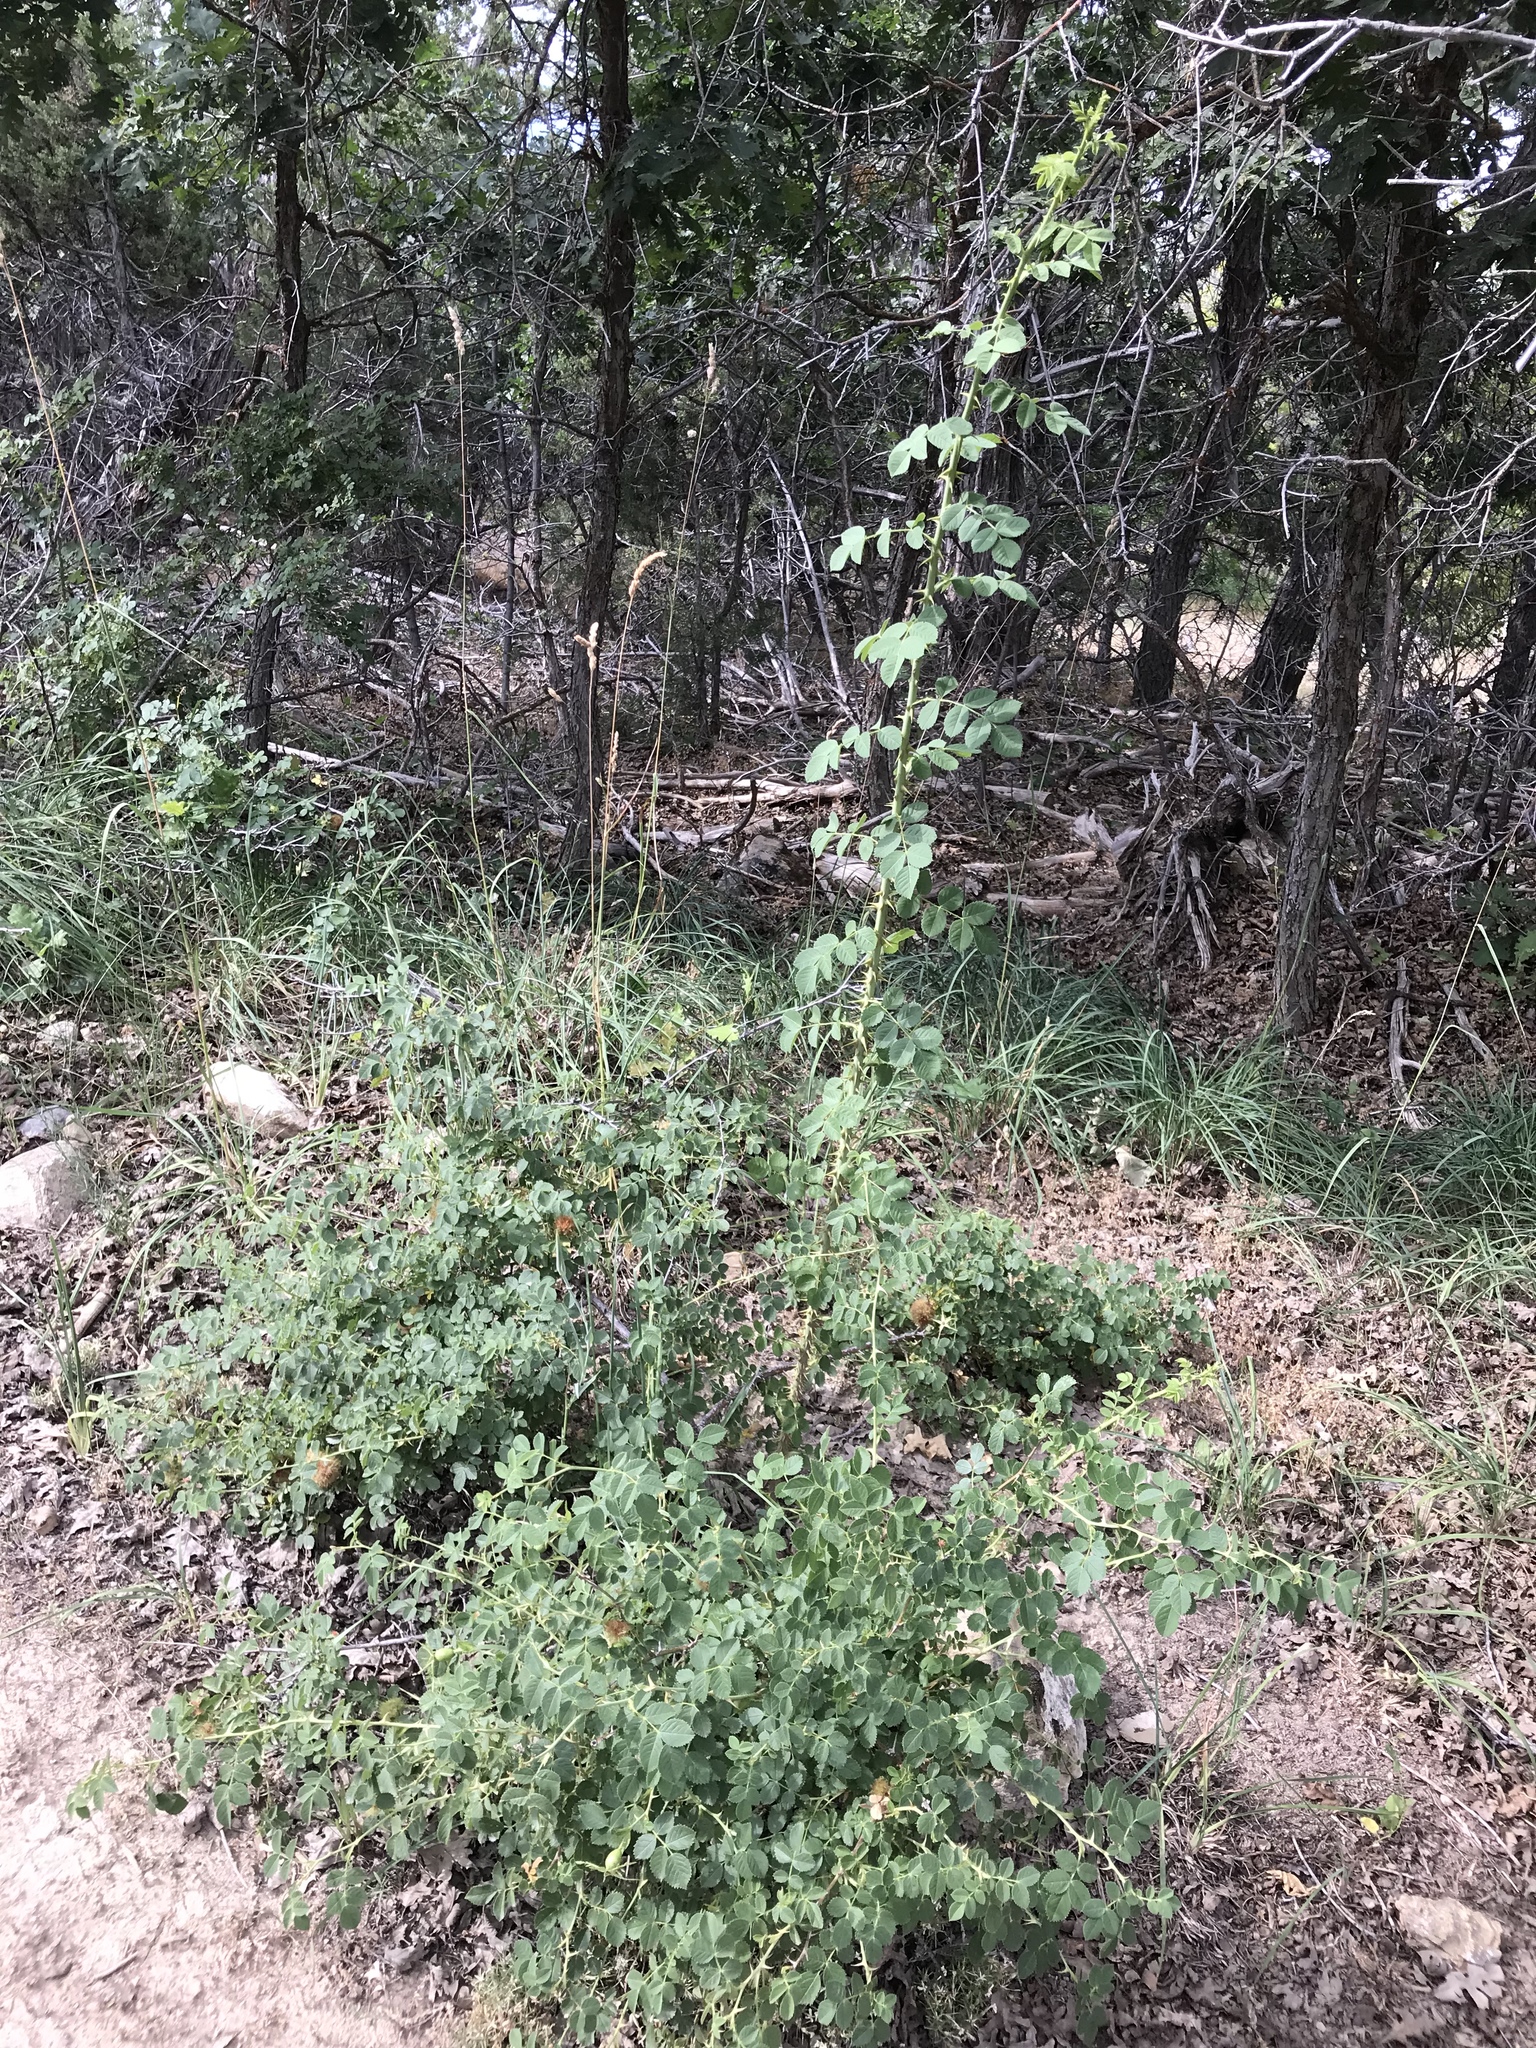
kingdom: Plantae
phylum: Tracheophyta
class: Magnoliopsida
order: Rosales
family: Rosaceae
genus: Rosa
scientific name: Rosa woodsii
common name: Woods's rose
